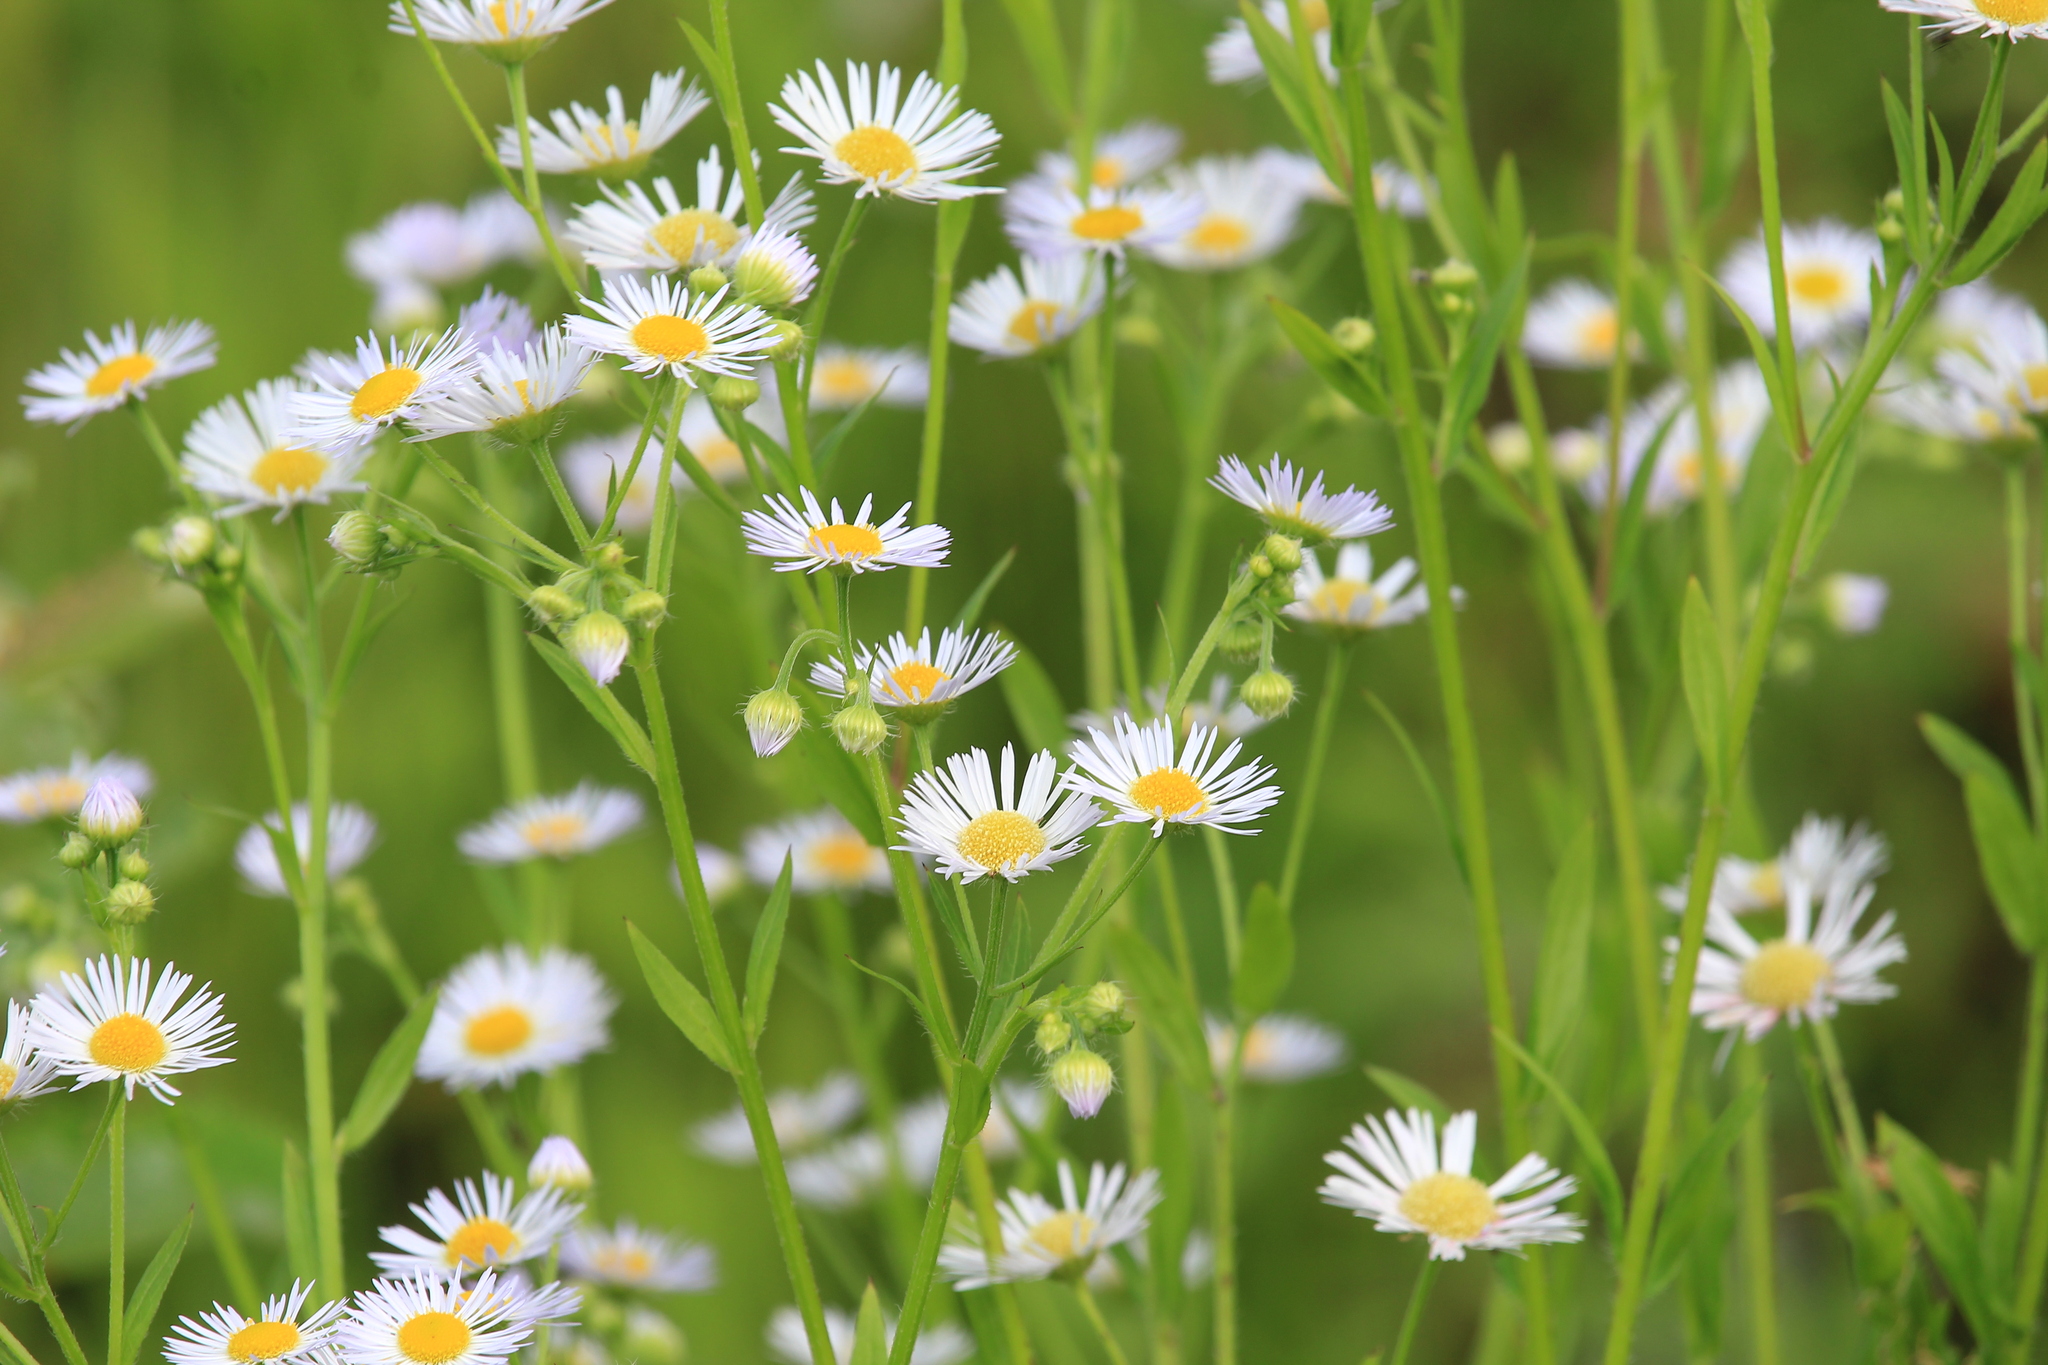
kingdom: Plantae
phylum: Tracheophyta
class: Magnoliopsida
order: Asterales
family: Asteraceae
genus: Erigeron
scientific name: Erigeron annuus
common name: Tall fleabane
